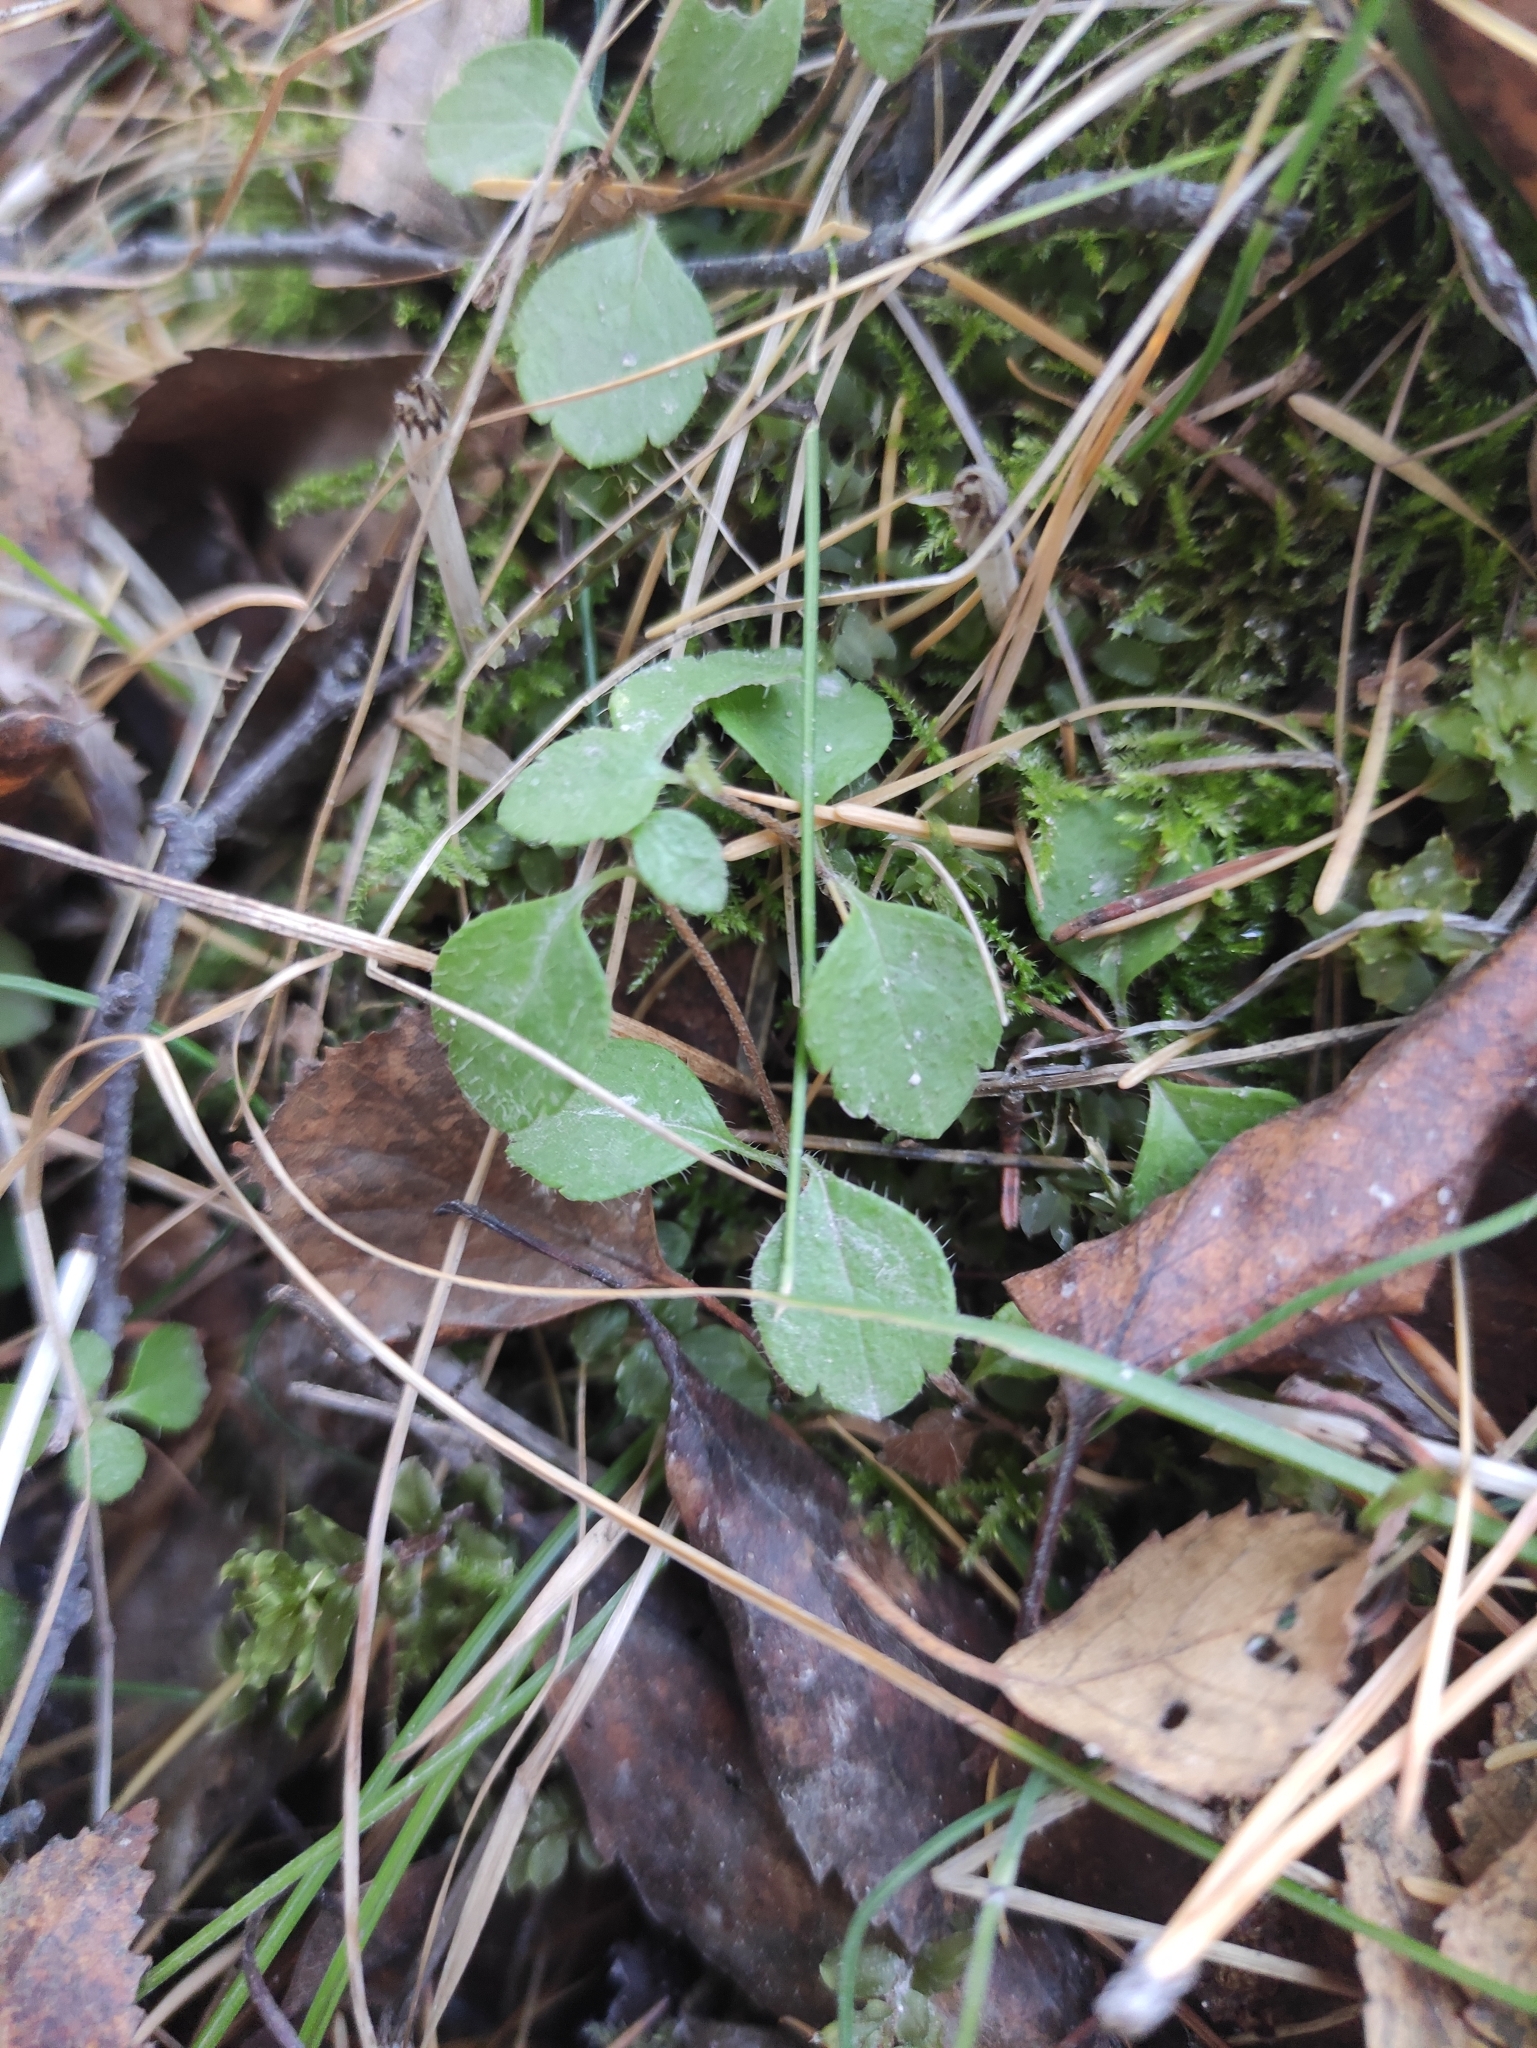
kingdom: Plantae
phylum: Tracheophyta
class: Magnoliopsida
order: Dipsacales
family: Caprifoliaceae
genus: Linnaea
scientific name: Linnaea borealis
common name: Twinflower
